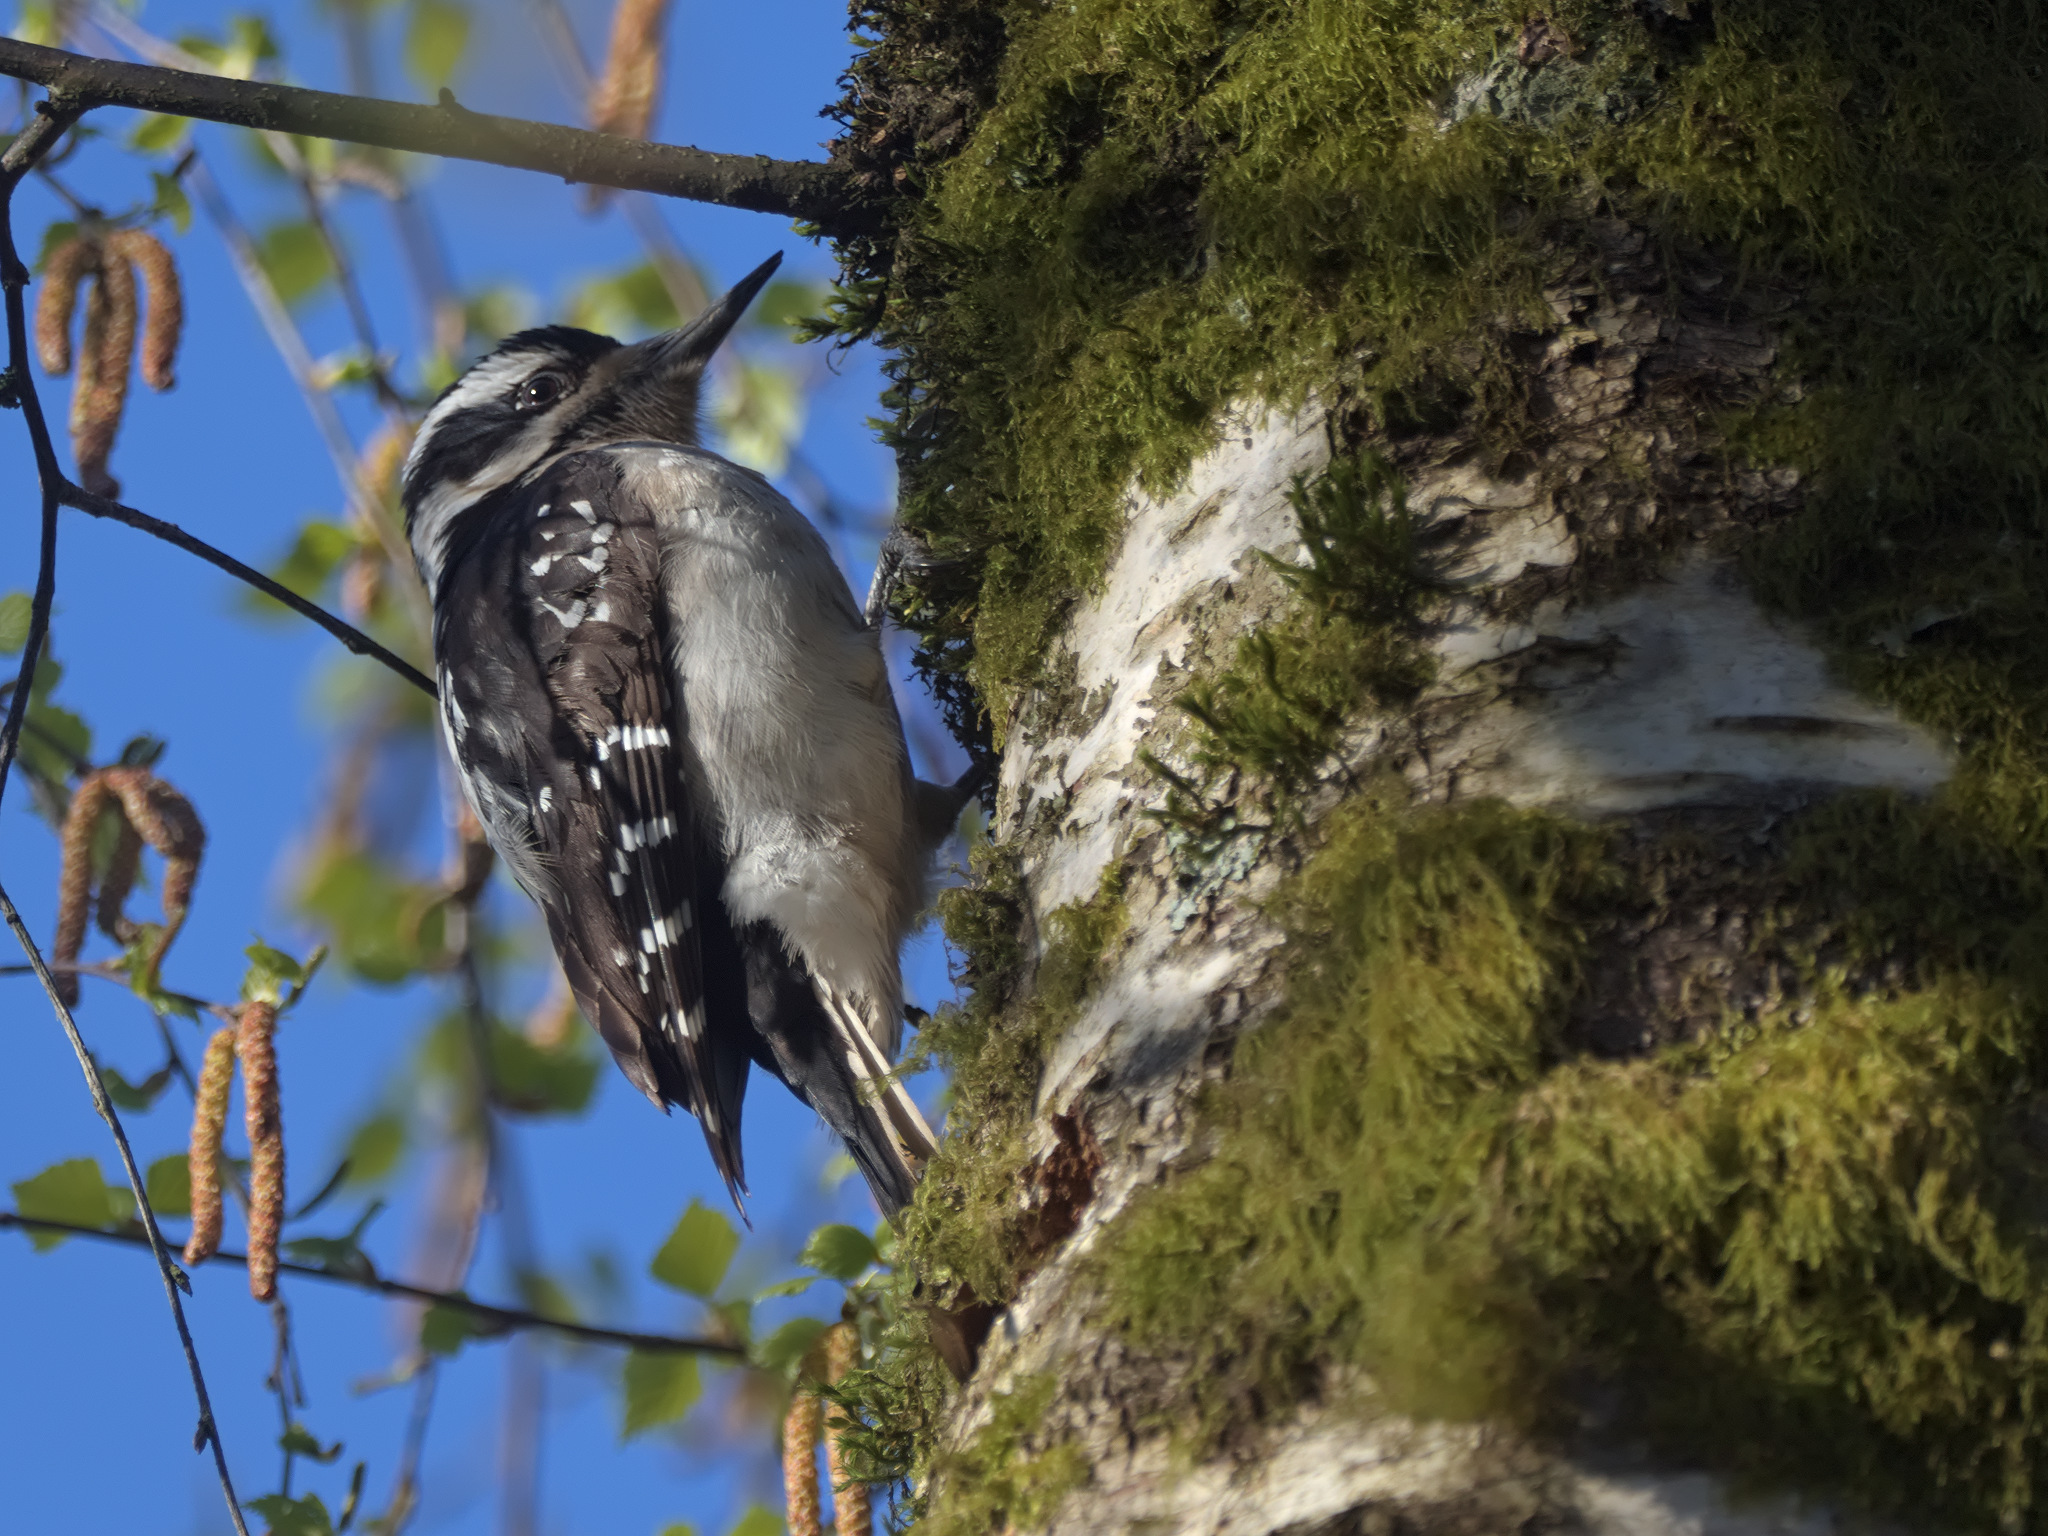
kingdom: Animalia
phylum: Chordata
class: Aves
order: Piciformes
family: Picidae
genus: Leuconotopicus
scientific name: Leuconotopicus villosus
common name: Hairy woodpecker
